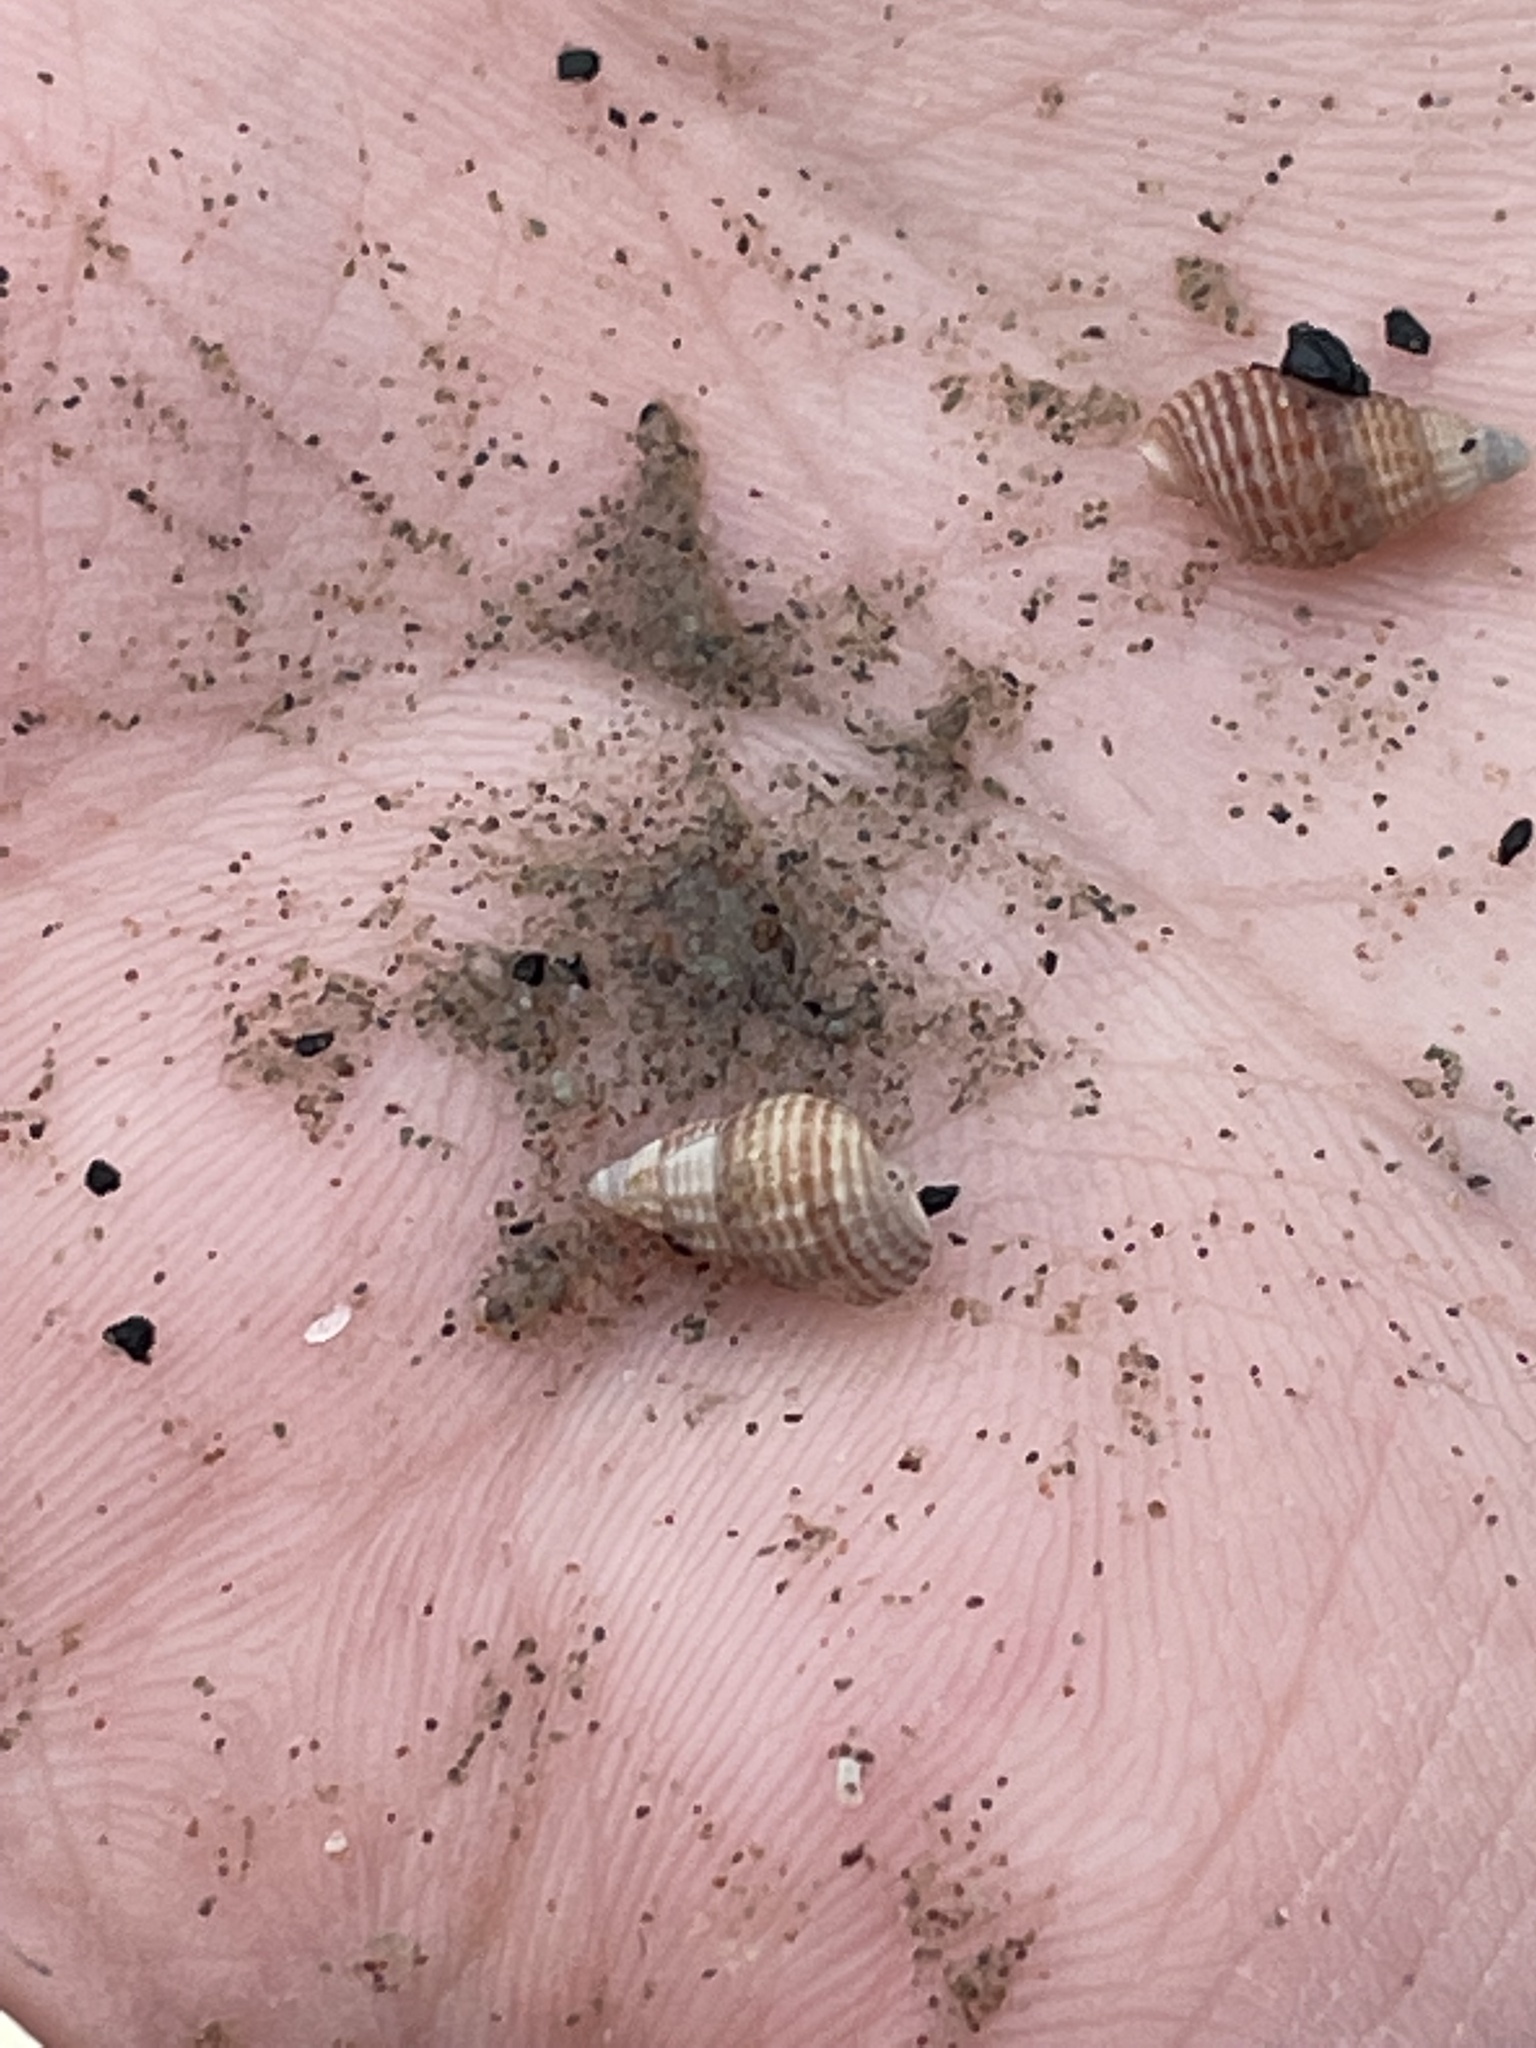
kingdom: Animalia
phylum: Mollusca
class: Gastropoda
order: Neogastropoda
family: Nassariidae
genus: Ilyanassa
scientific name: Ilyanassa trivittata
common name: Three-line mudsnail
